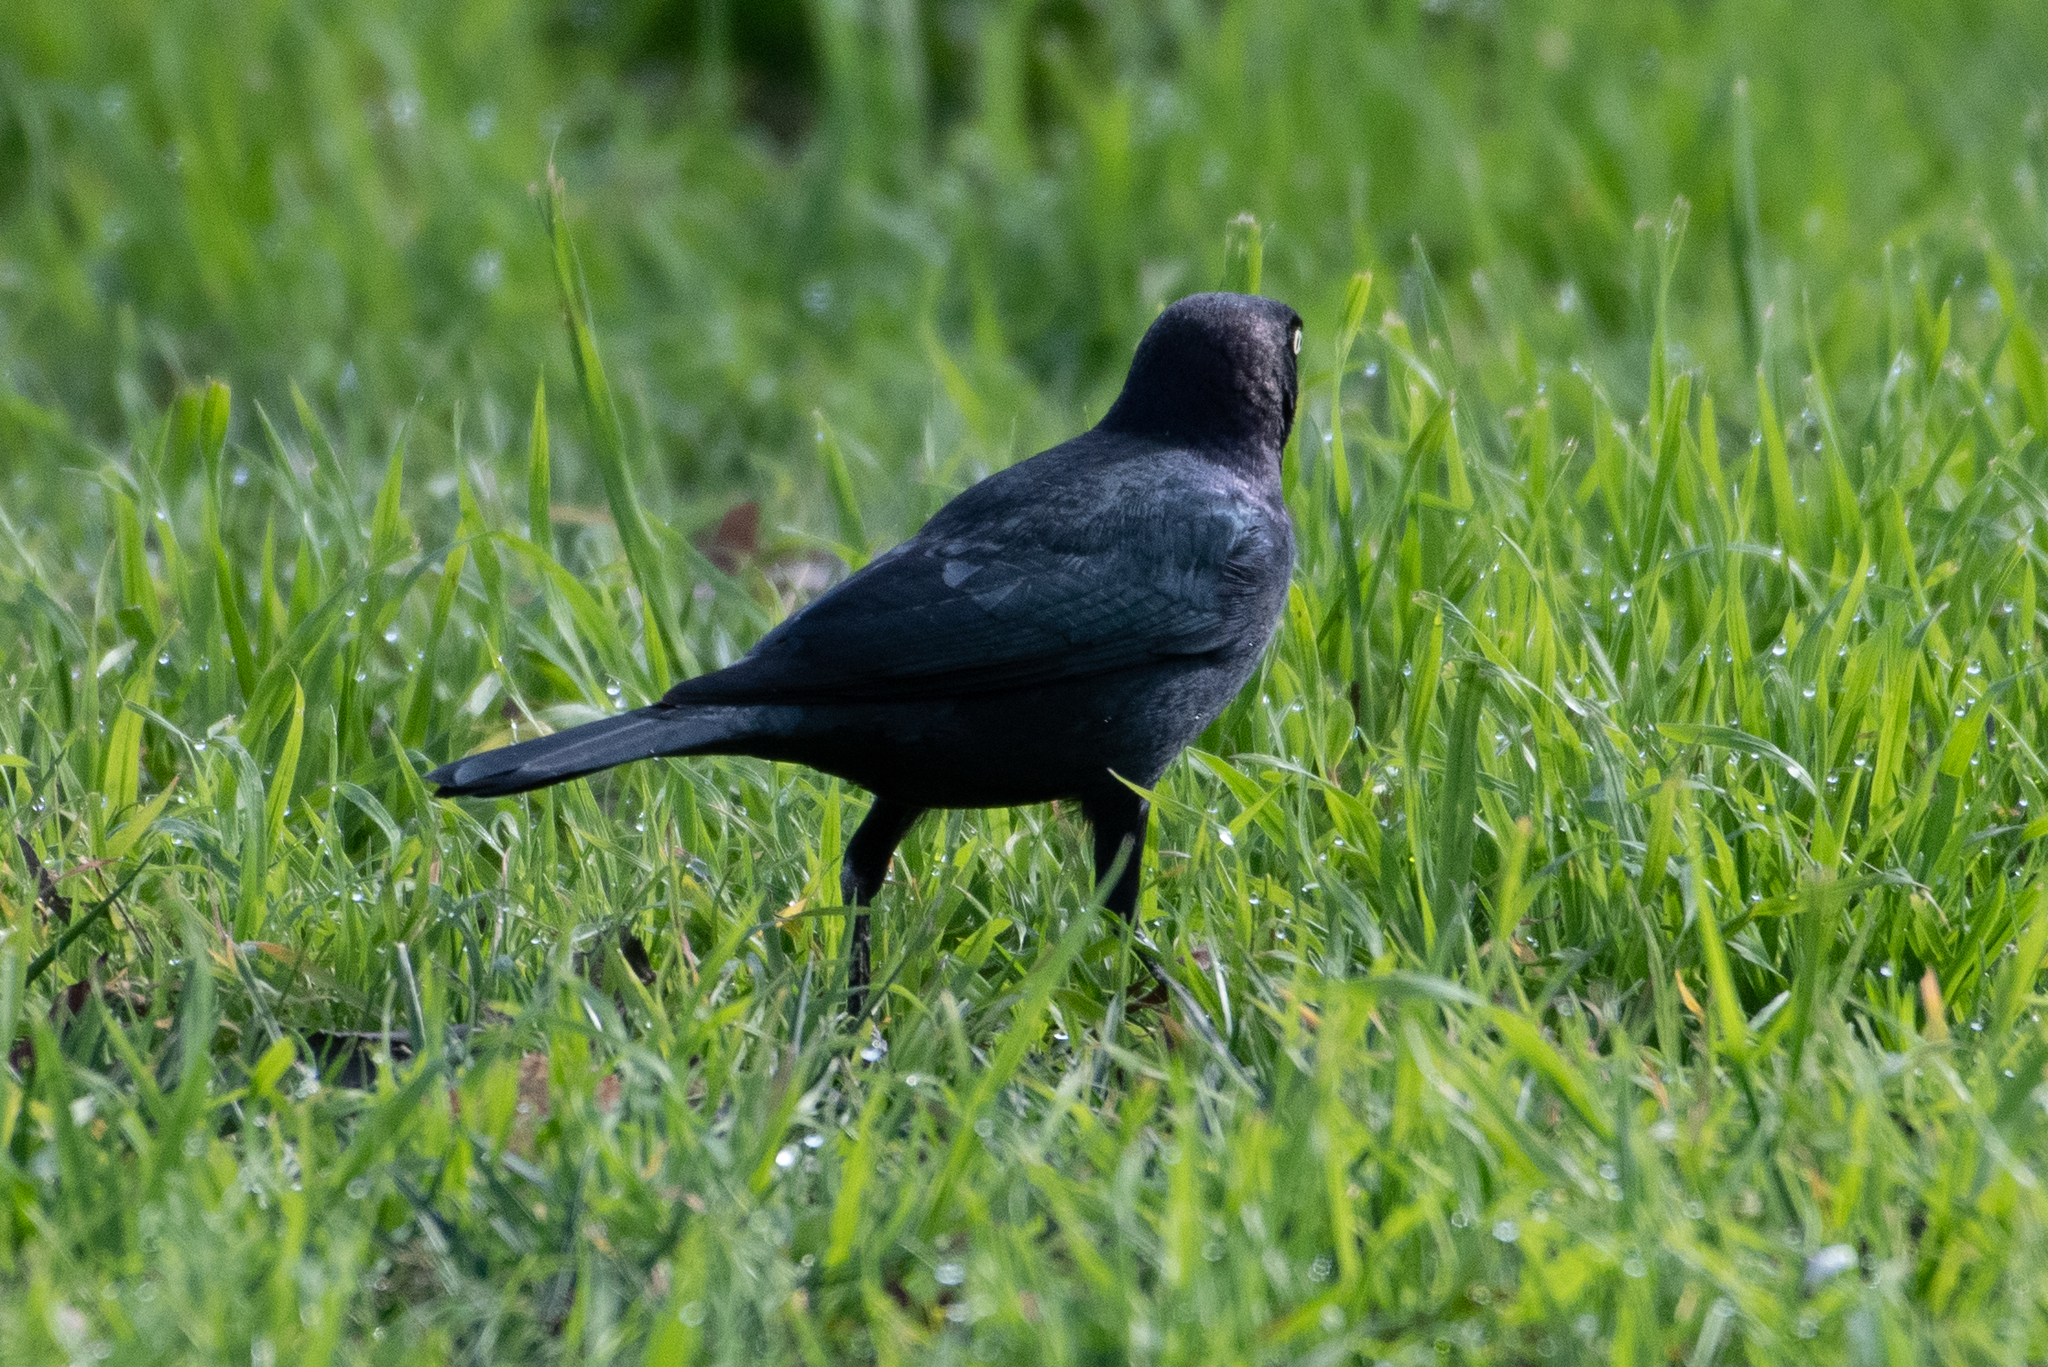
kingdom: Animalia
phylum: Chordata
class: Aves
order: Passeriformes
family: Icteridae
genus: Euphagus
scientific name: Euphagus cyanocephalus
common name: Brewer's blackbird
